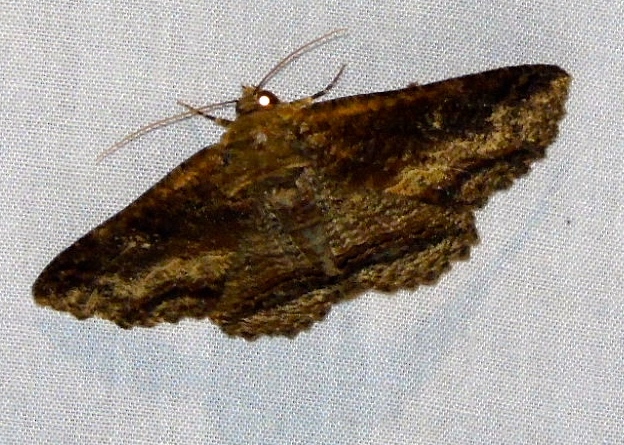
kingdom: Animalia
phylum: Arthropoda
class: Insecta
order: Lepidoptera
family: Erebidae
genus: Zale
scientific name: Zale
